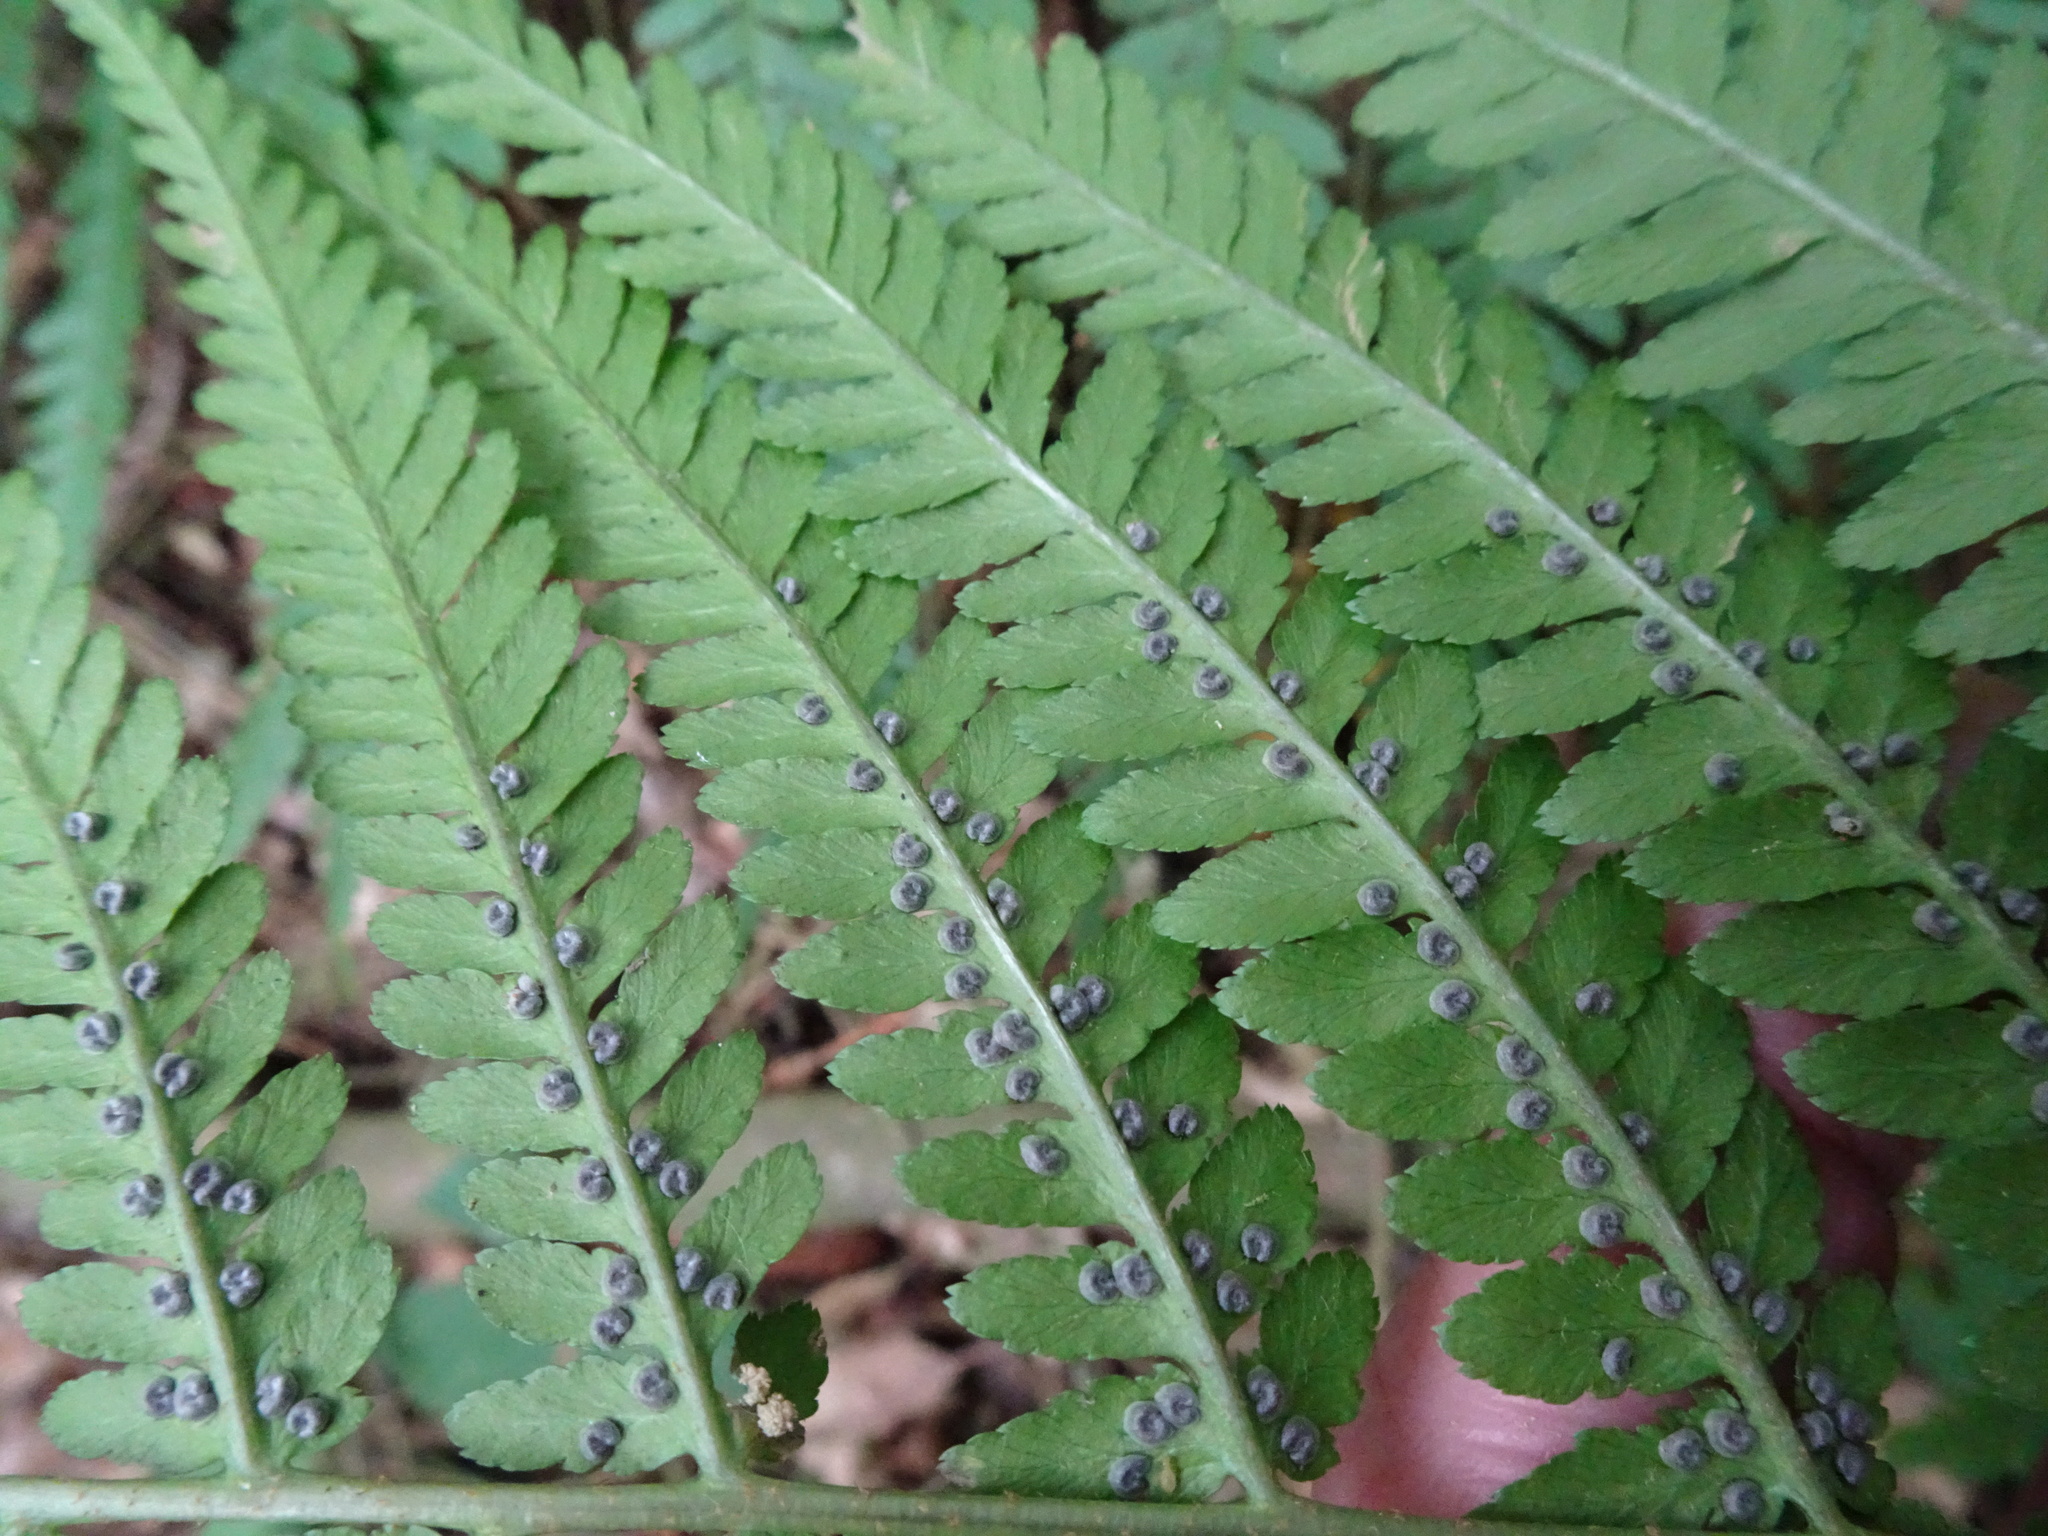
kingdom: Plantae
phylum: Tracheophyta
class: Polypodiopsida
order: Polypodiales
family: Dryopteridaceae
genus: Dryopteris
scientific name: Dryopteris filix-mas
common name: Male fern
